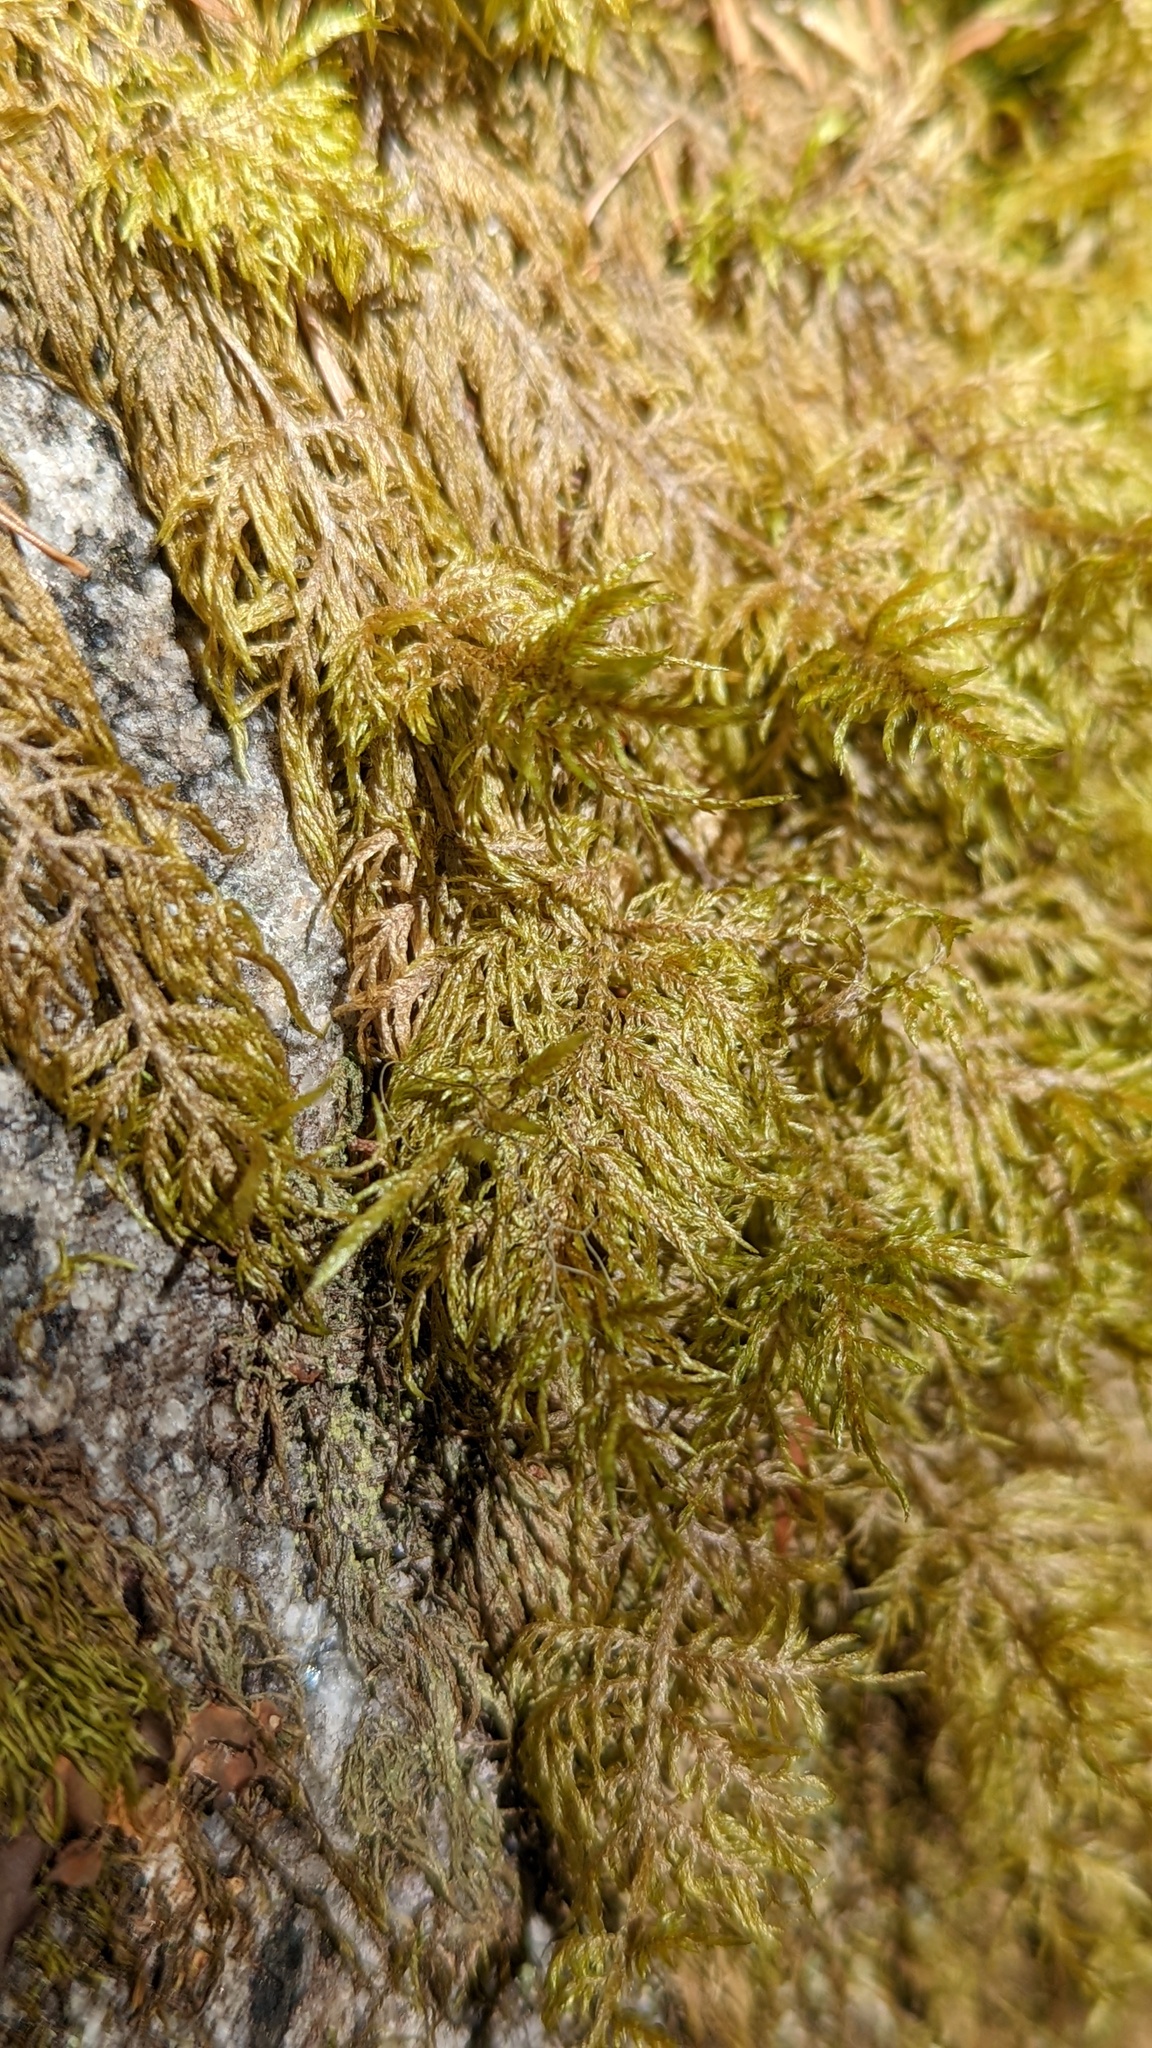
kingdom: Plantae
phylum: Bryophyta
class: Bryopsida
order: Hypnales
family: Hylocomiaceae
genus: Hylocomium
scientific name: Hylocomium splendens
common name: Stairstep moss
